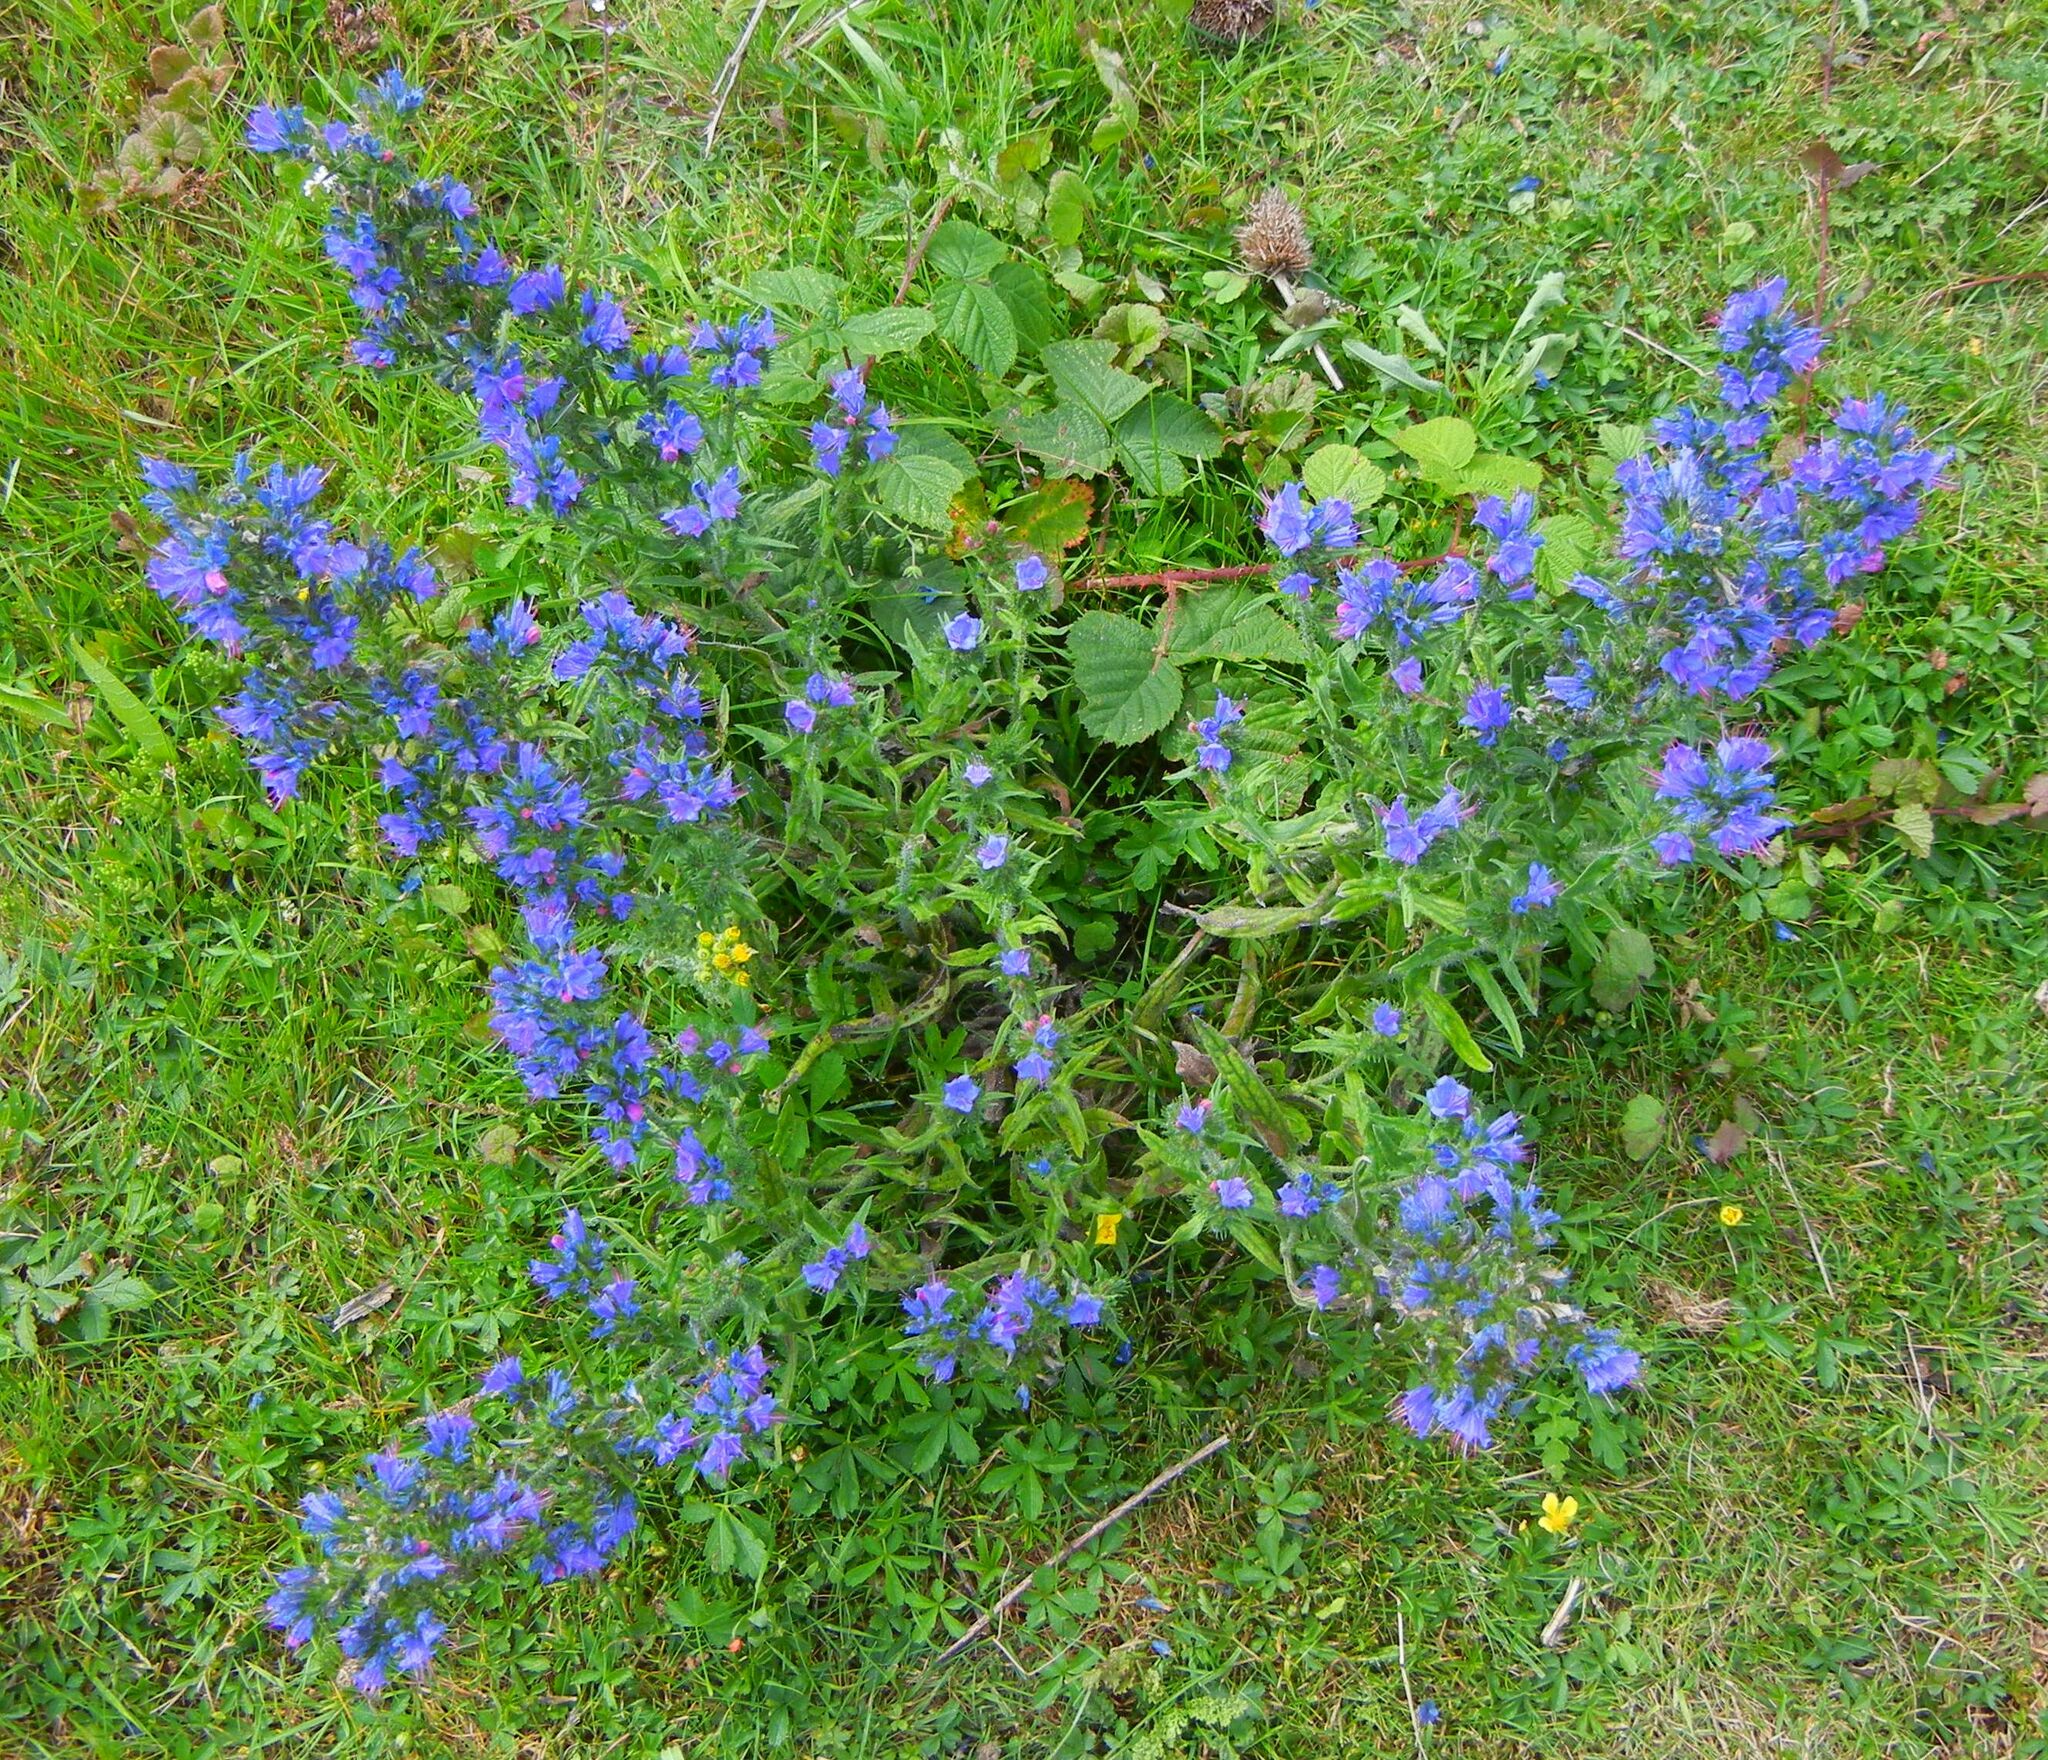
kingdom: Plantae
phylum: Tracheophyta
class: Magnoliopsida
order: Boraginales
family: Boraginaceae
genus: Echium
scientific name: Echium vulgare
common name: Common viper's bugloss
